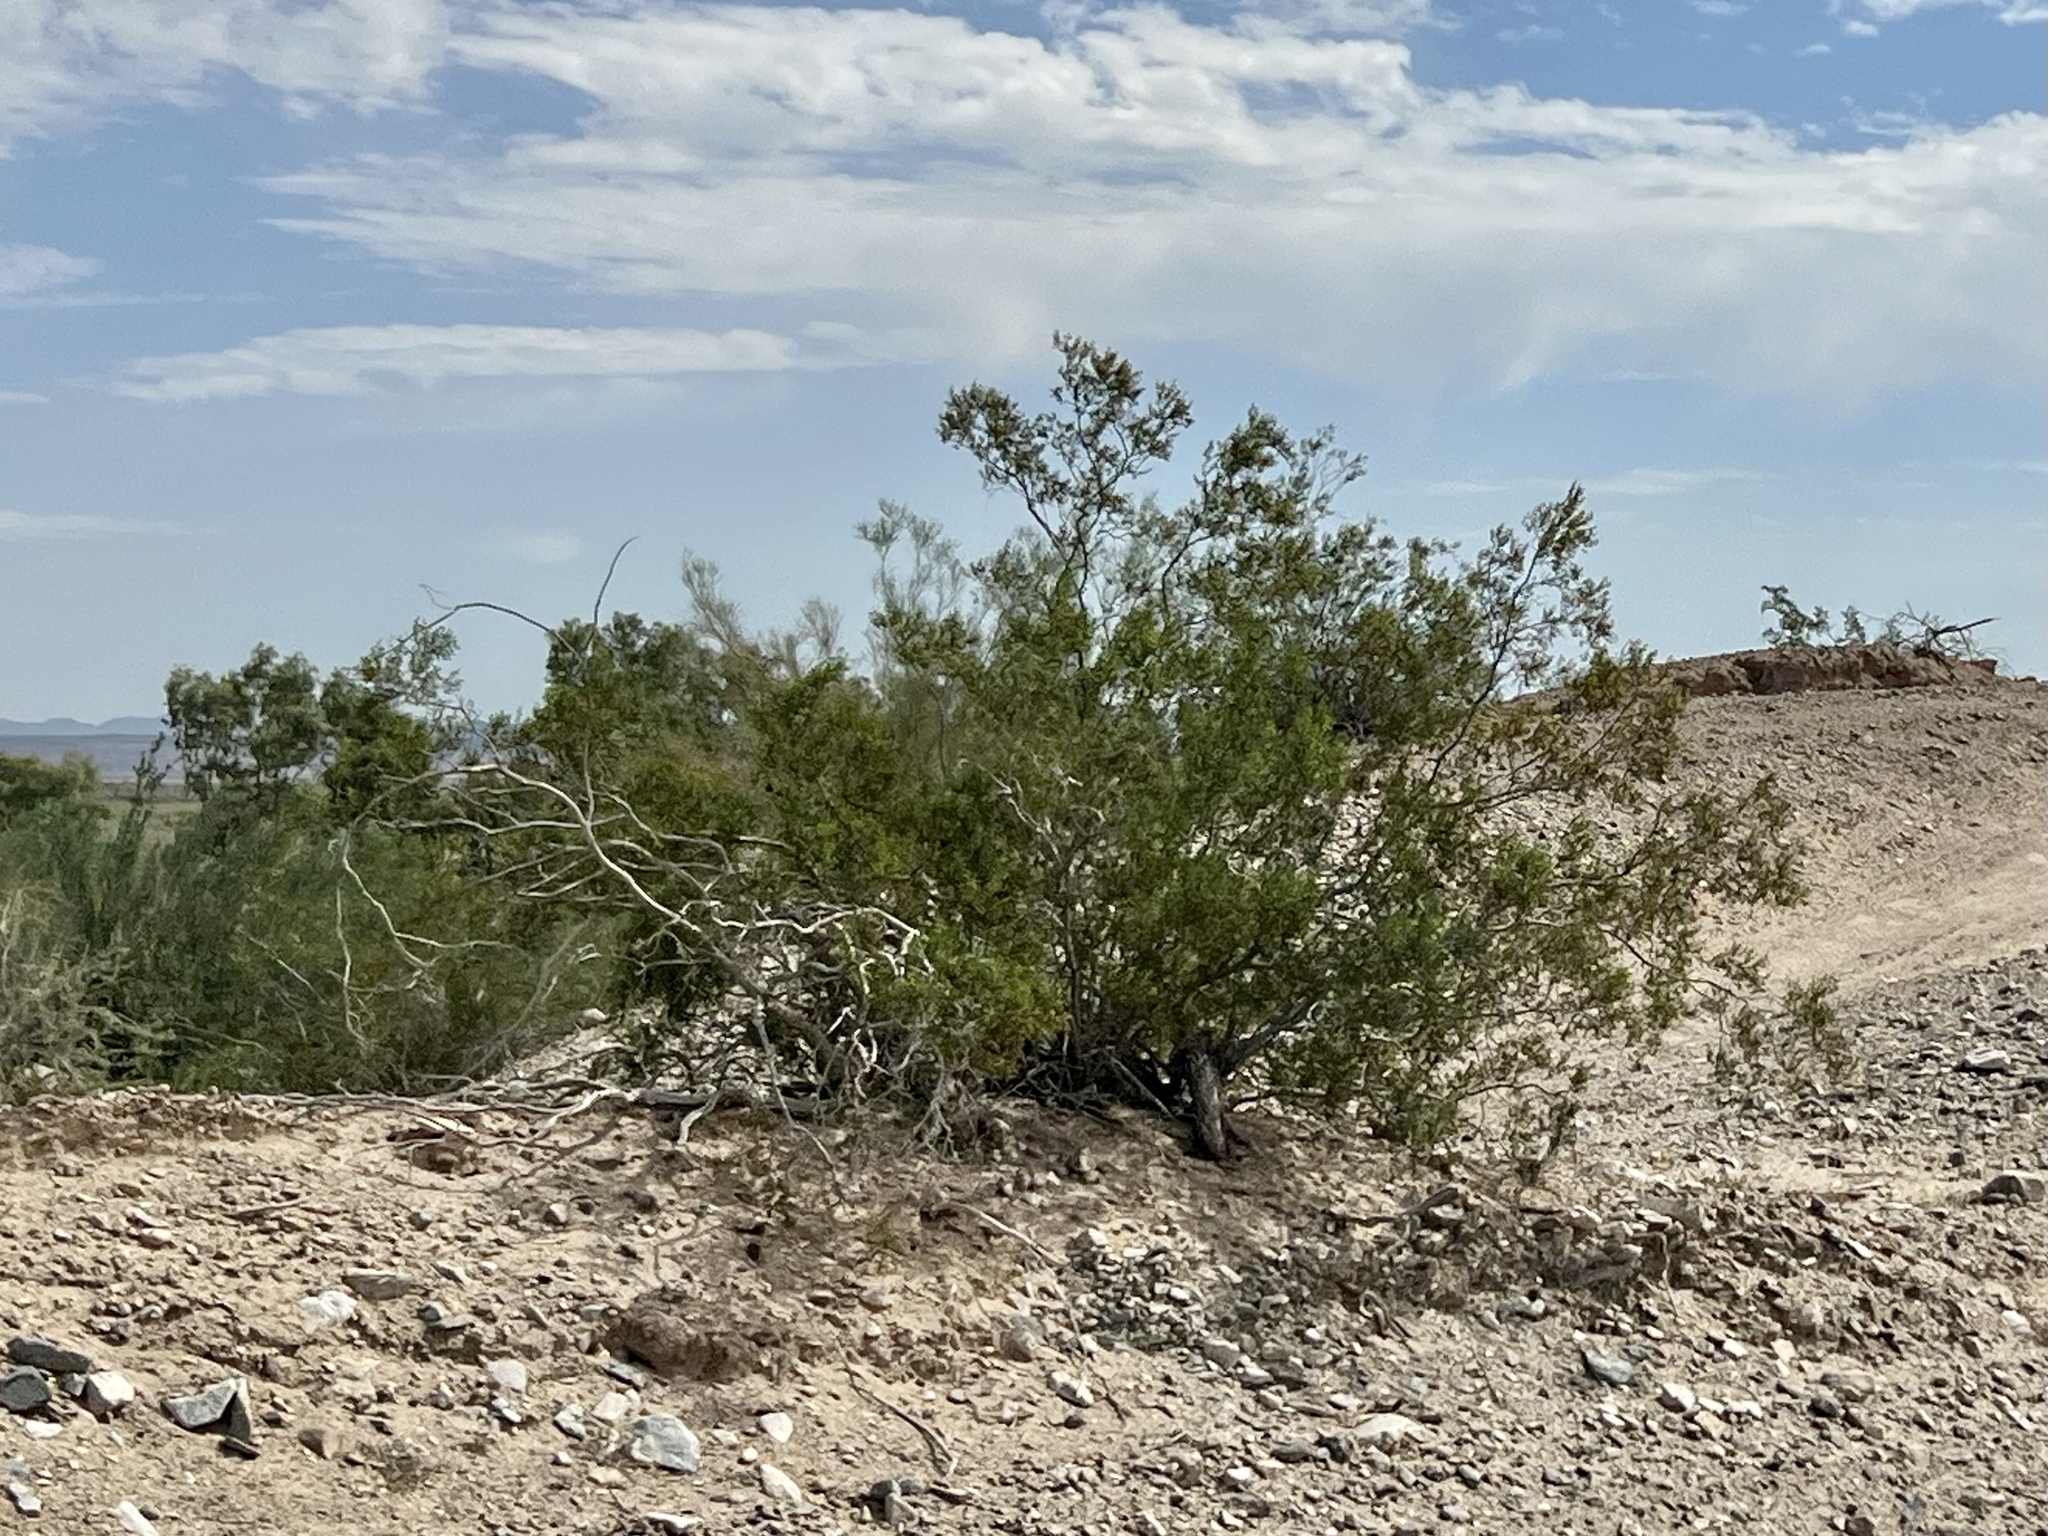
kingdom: Plantae
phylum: Tracheophyta
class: Magnoliopsida
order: Zygophyllales
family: Zygophyllaceae
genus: Larrea
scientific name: Larrea tridentata
